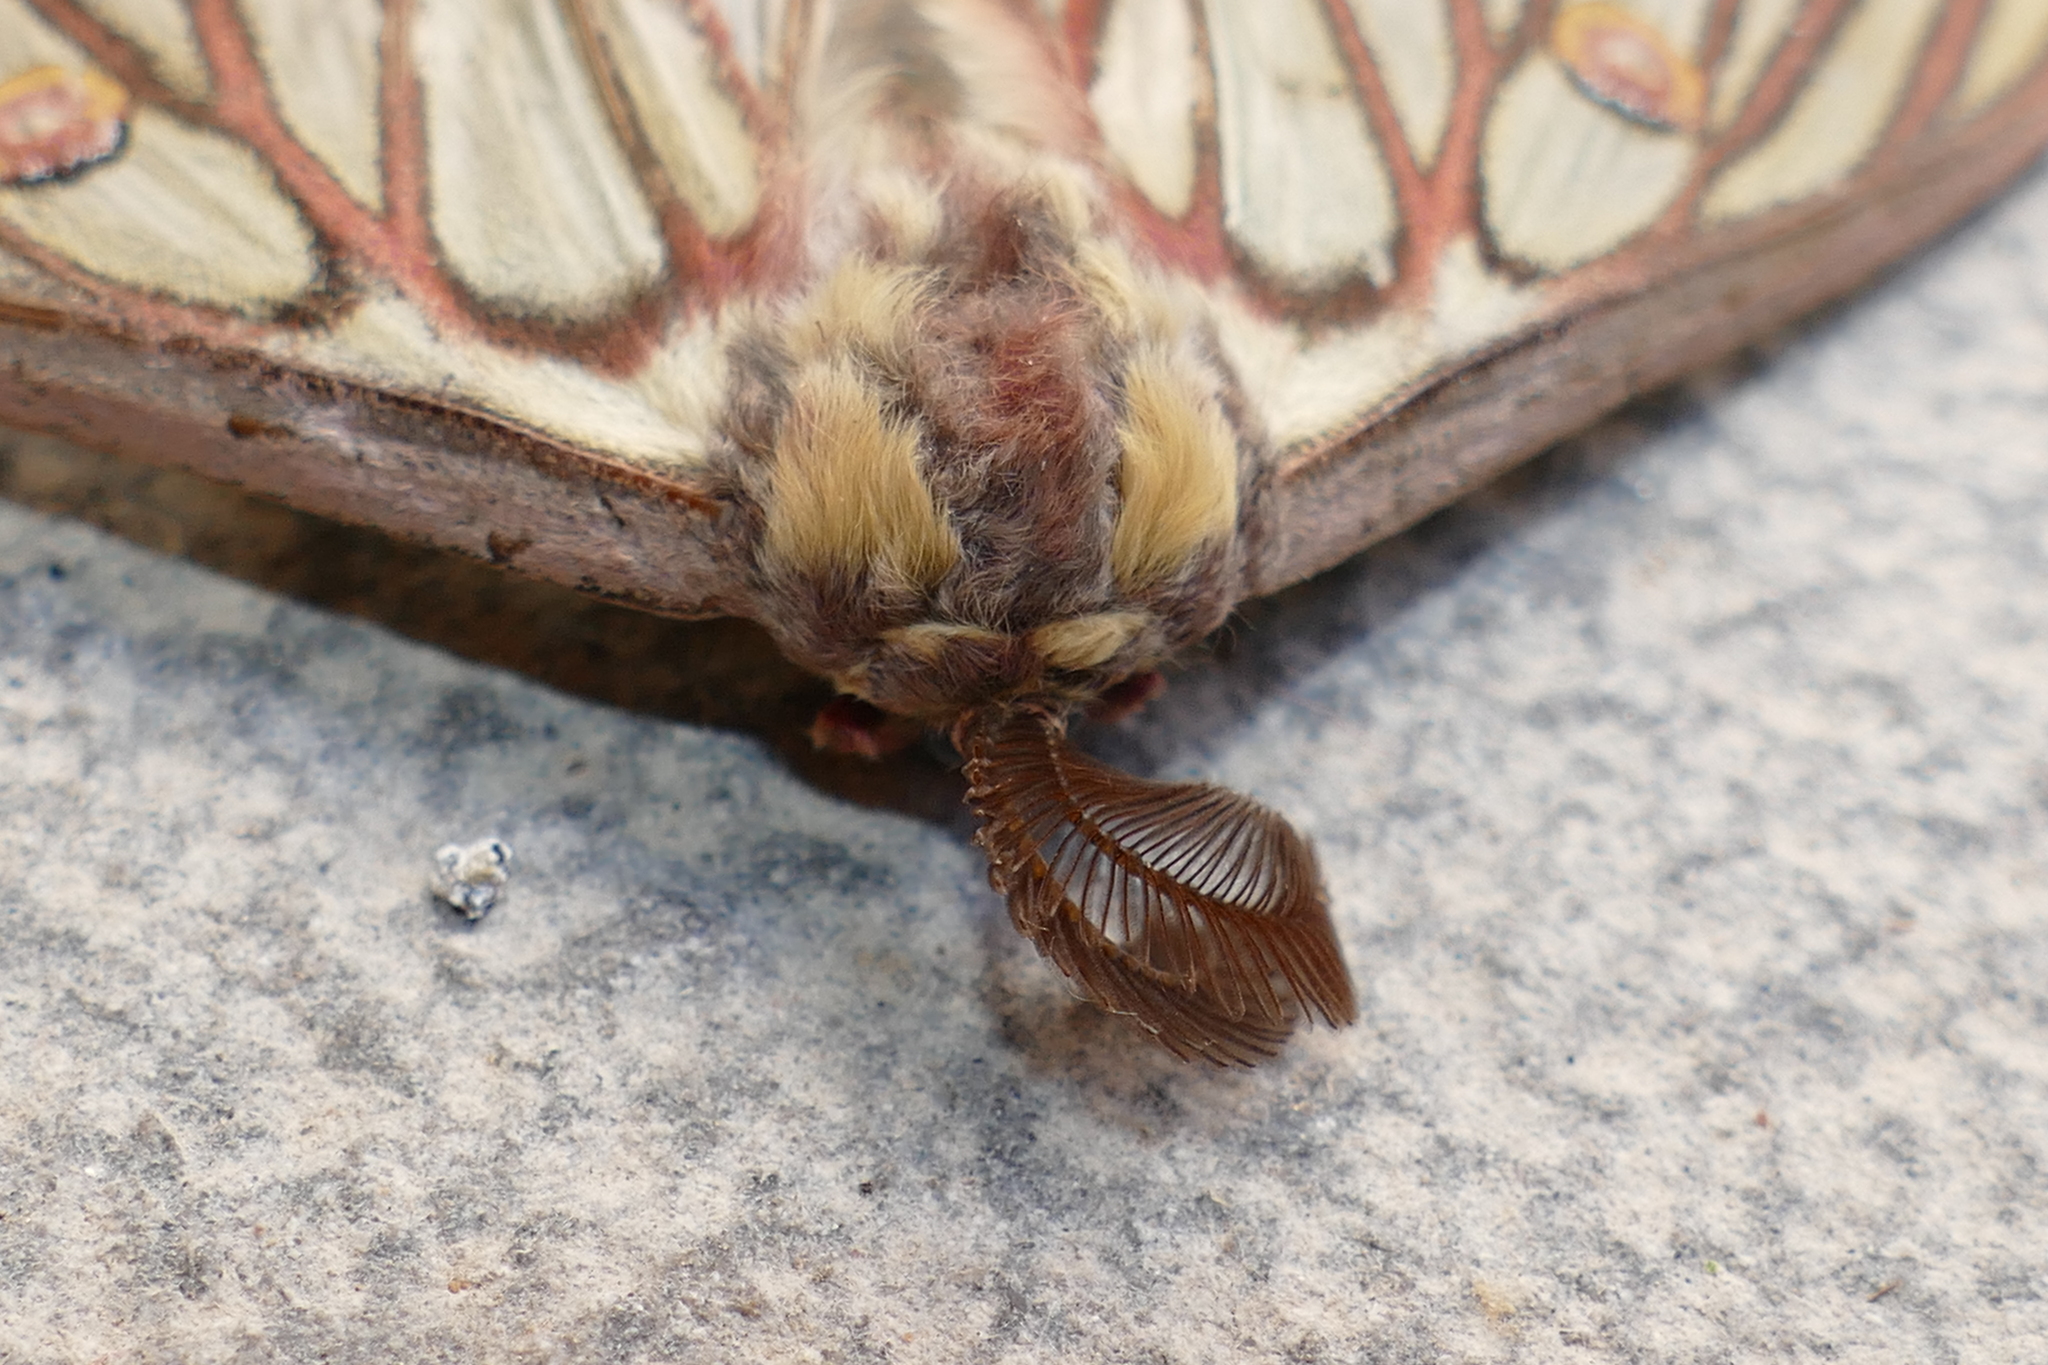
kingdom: Animalia
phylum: Arthropoda
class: Insecta
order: Lepidoptera
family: Saturniidae
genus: Graellsia
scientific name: Graellsia isabellae
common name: Spanish moon moth
